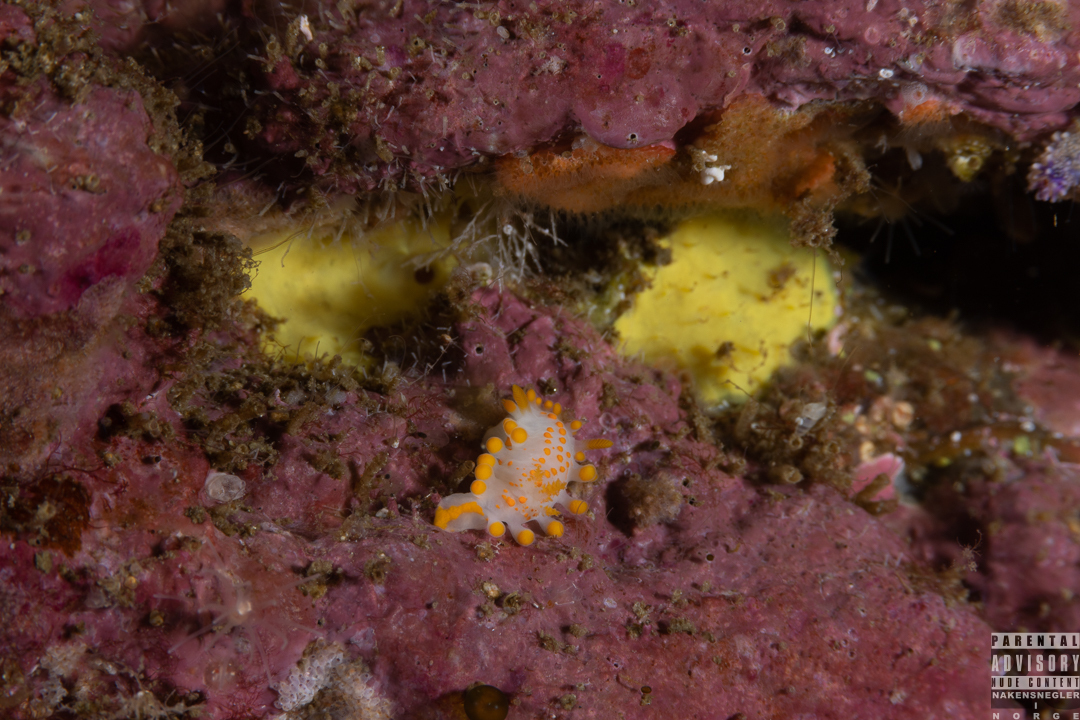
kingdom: Animalia
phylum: Mollusca
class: Gastropoda
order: Nudibranchia
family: Polyceridae
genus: Limacia
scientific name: Limacia clavigera
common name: Orange-clubbed sea slug
